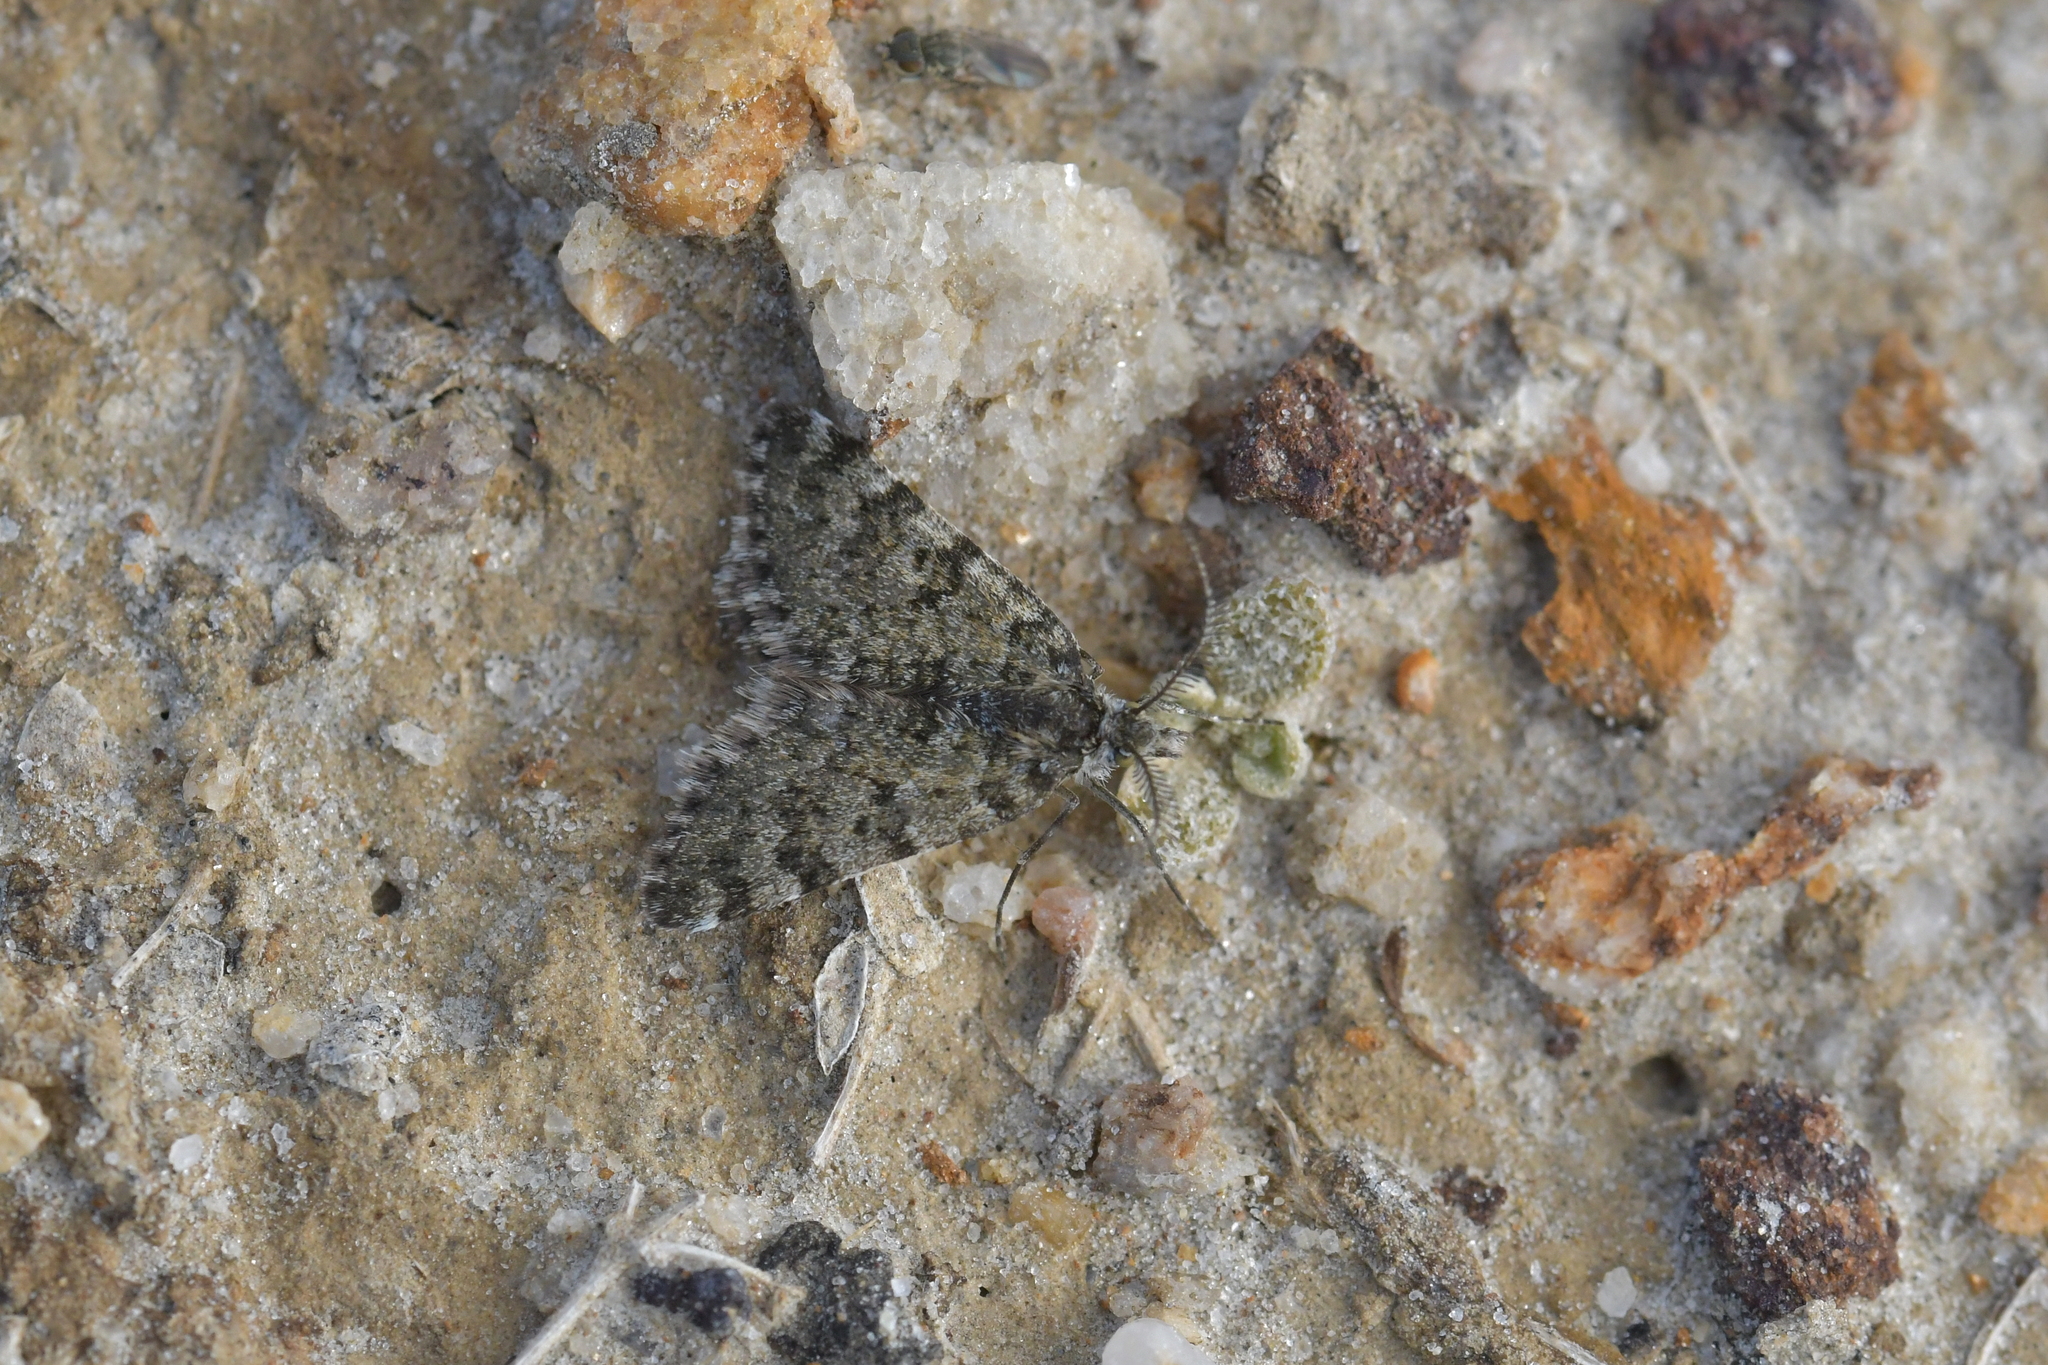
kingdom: Animalia
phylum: Arthropoda
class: Insecta
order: Lepidoptera
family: Geometridae
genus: Paranotoreas
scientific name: Paranotoreas fulva
